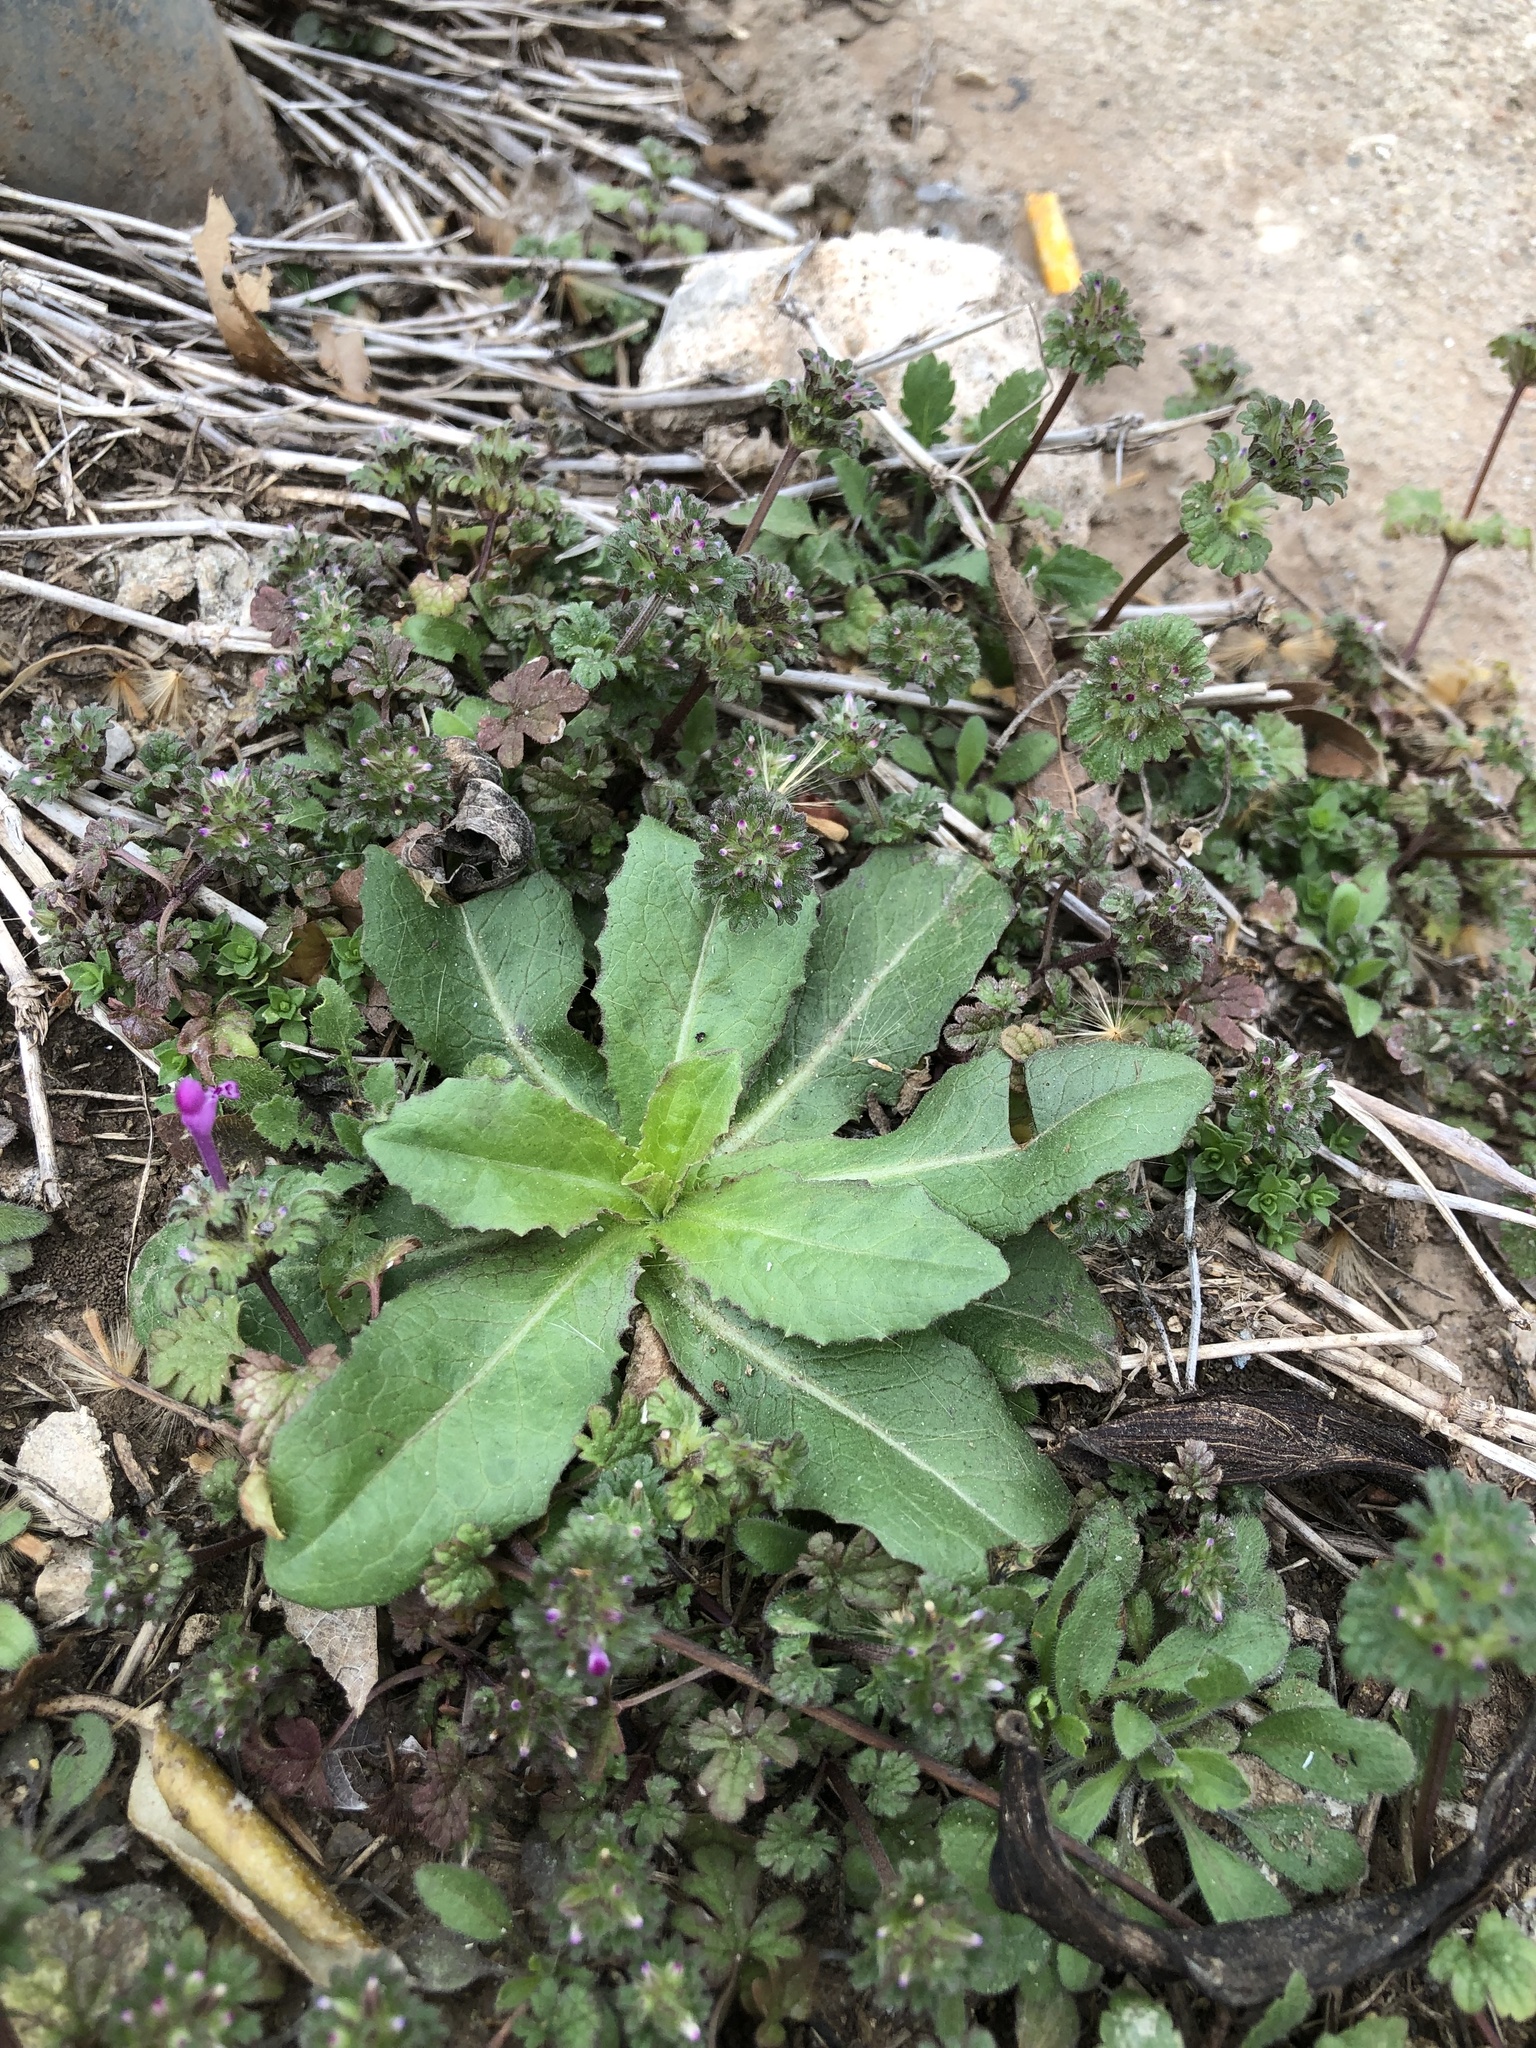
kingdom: Plantae
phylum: Tracheophyta
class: Magnoliopsida
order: Asterales
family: Asteraceae
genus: Lactuca
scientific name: Lactuca serriola
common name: Prickly lettuce
